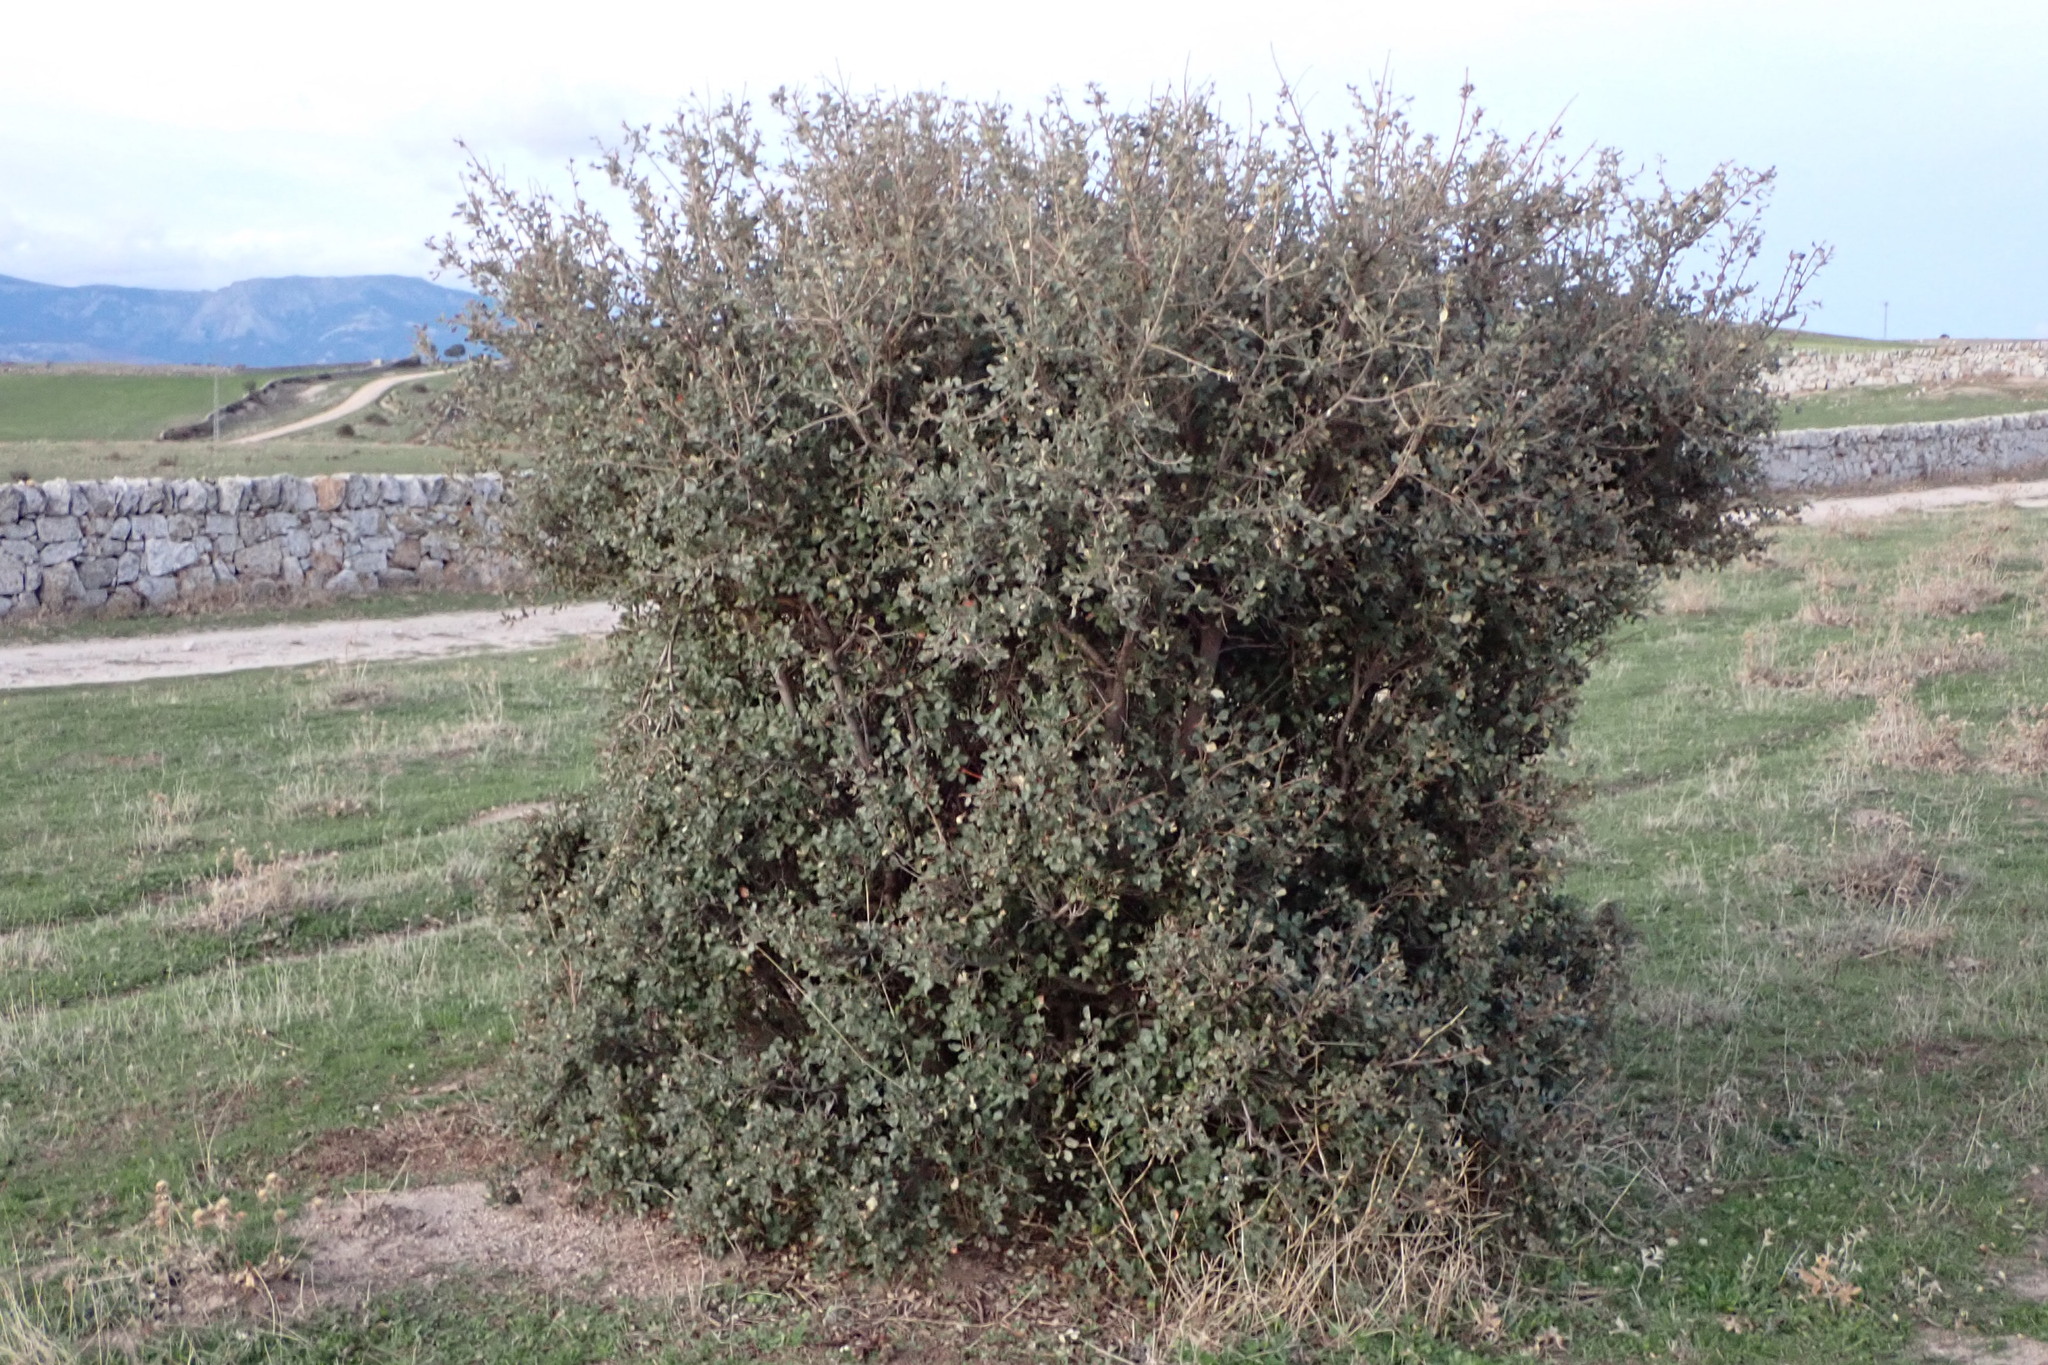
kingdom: Plantae
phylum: Tracheophyta
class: Magnoliopsida
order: Fagales
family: Fagaceae
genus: Quercus
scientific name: Quercus rotundifolia
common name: Holm oak
